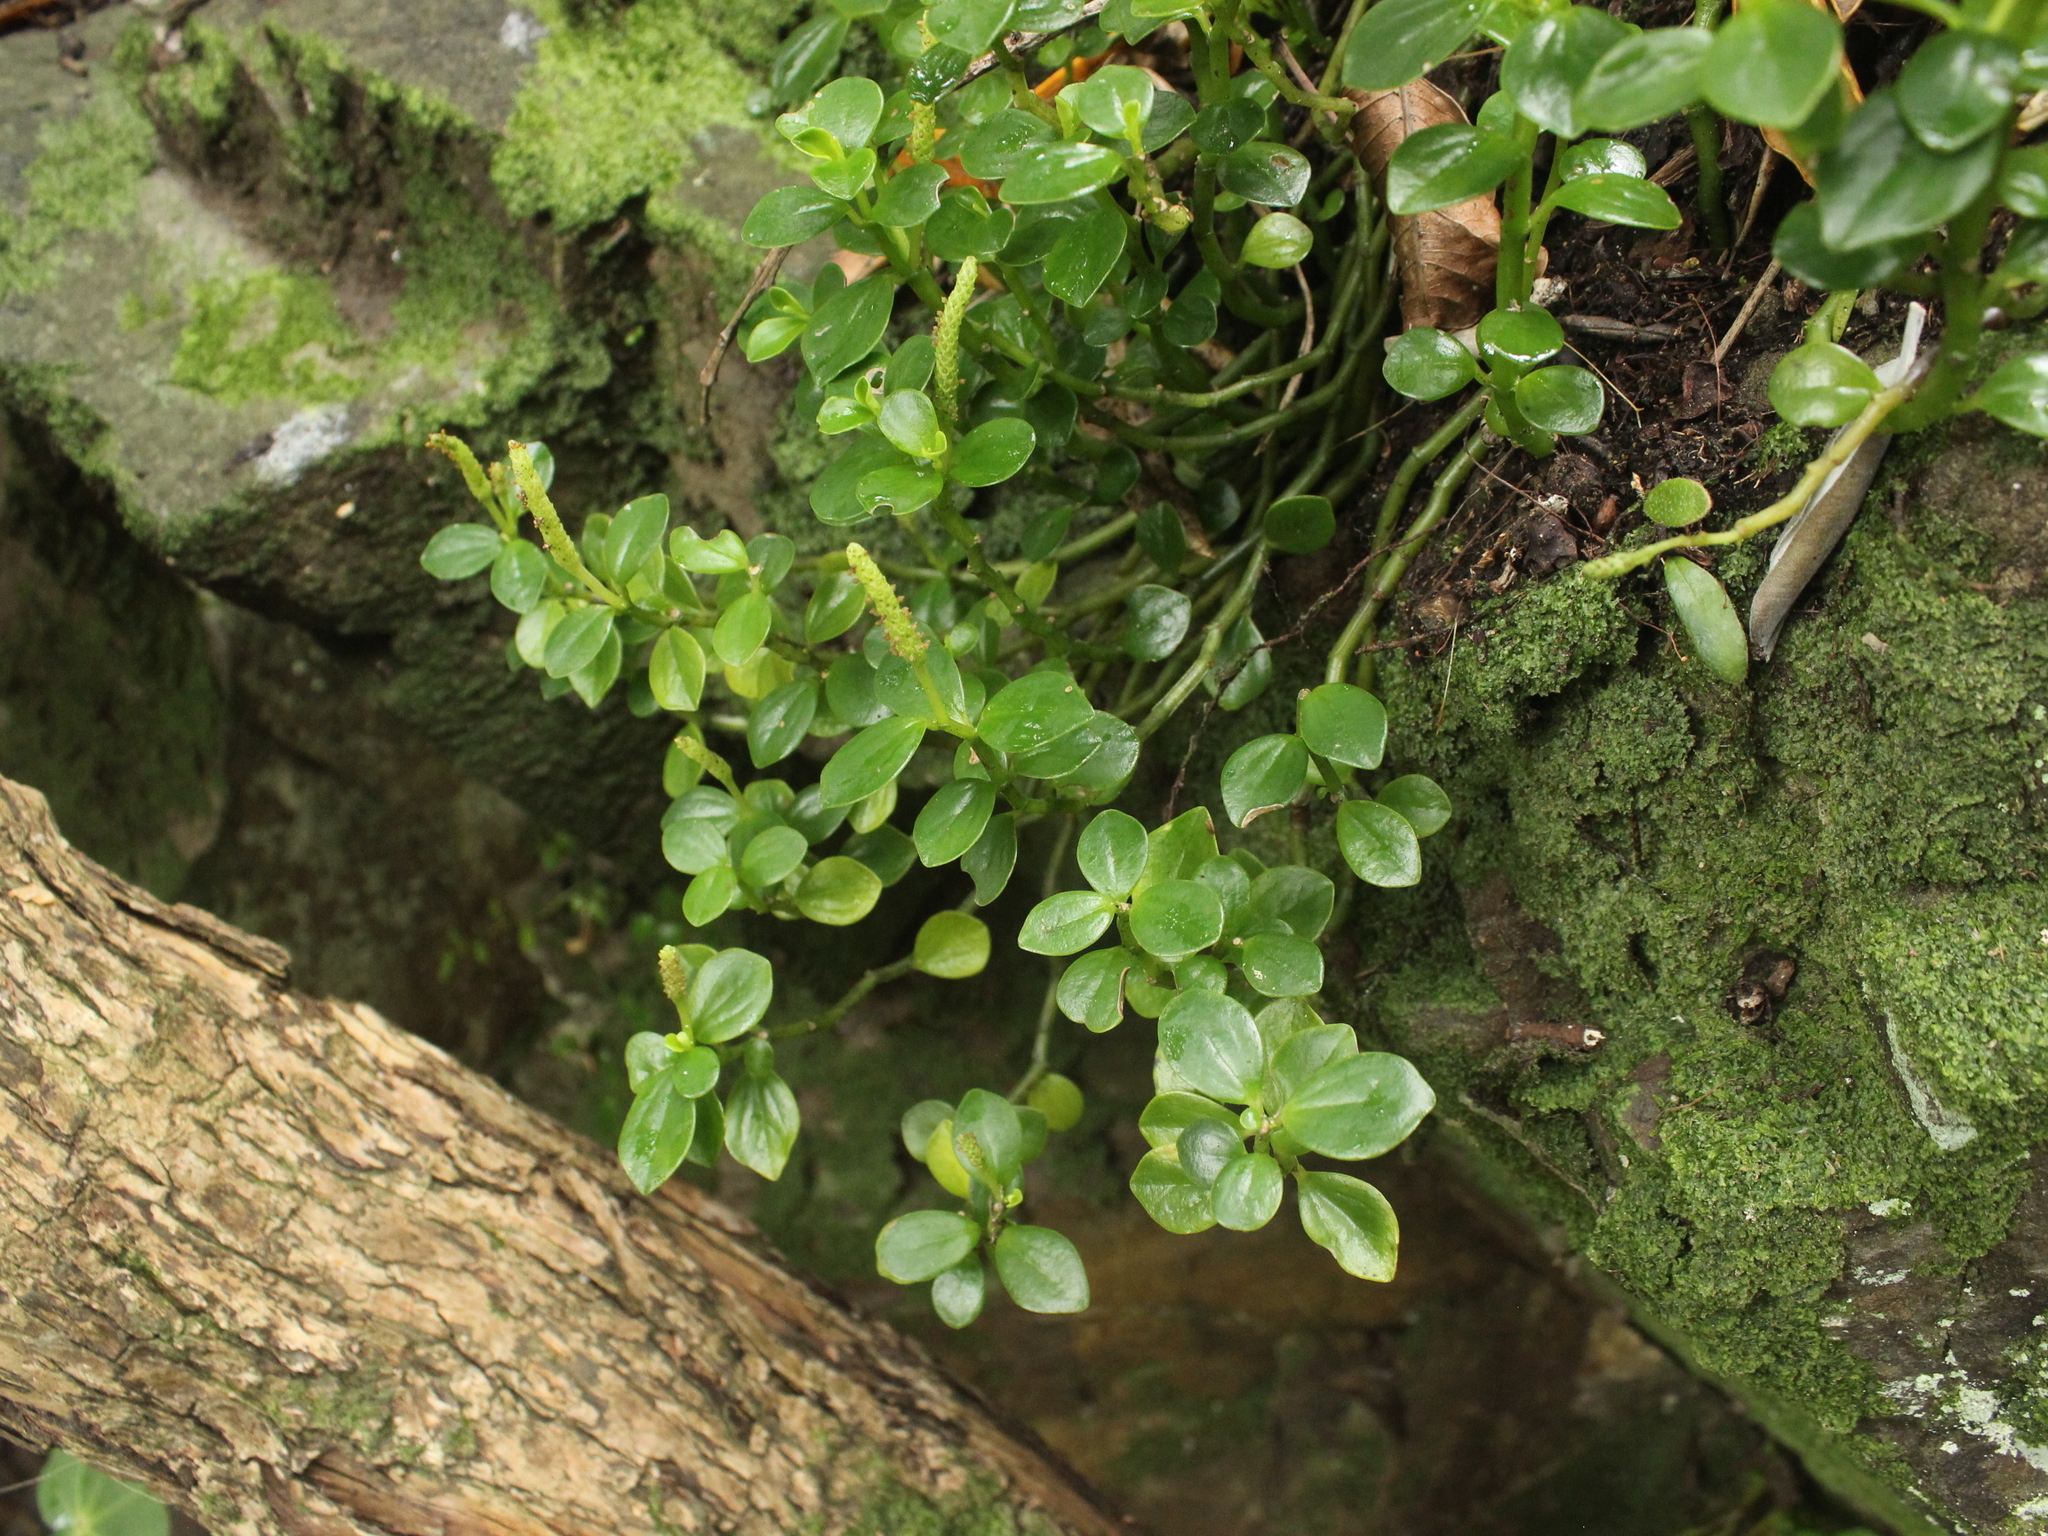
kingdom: Plantae
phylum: Tracheophyta
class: Magnoliopsida
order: Piperales
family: Piperaceae
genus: Peperomia
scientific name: Peperomia urvilleana
